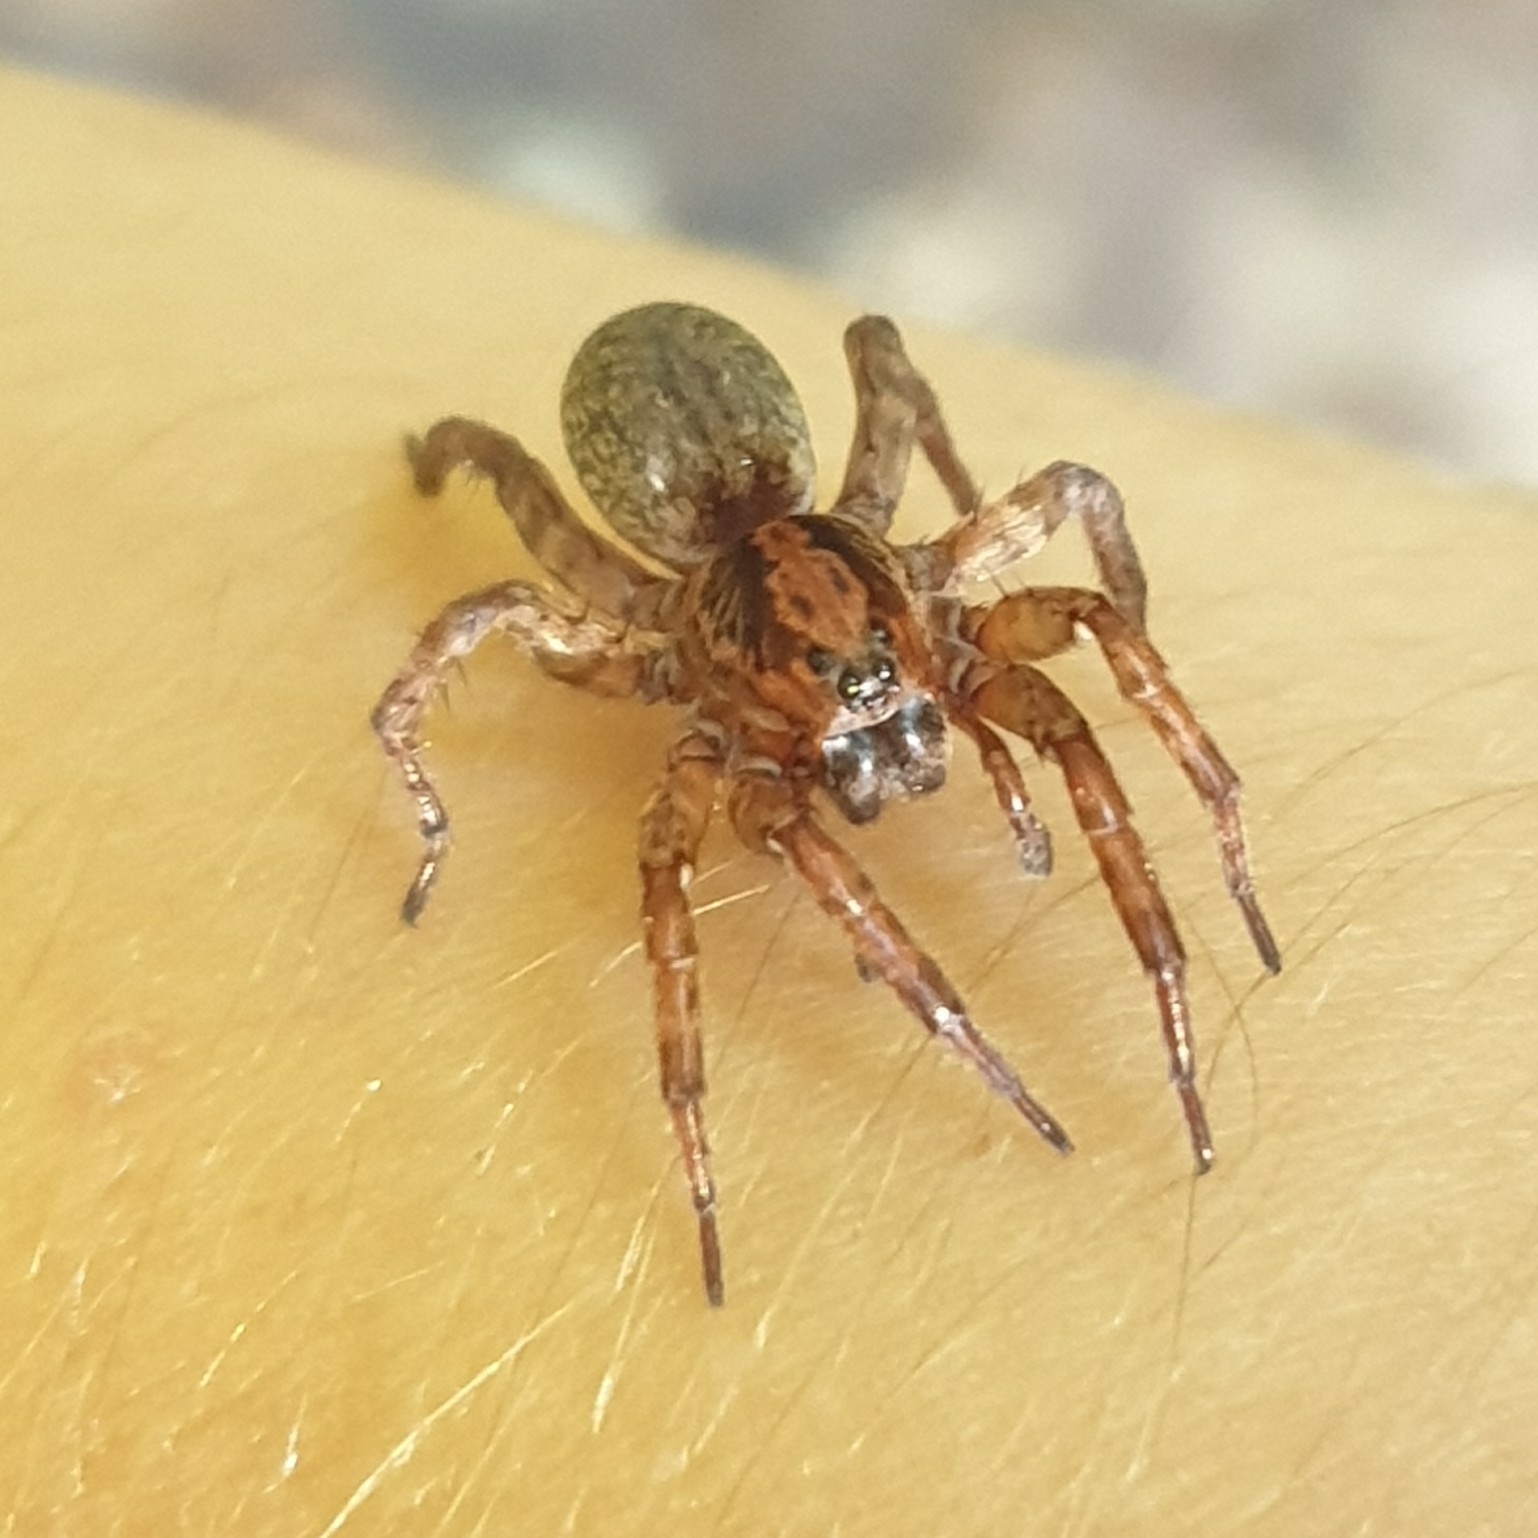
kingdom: Animalia
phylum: Arthropoda
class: Arachnida
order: Araneae
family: Lycosidae
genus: Trochosa
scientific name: Trochosa
